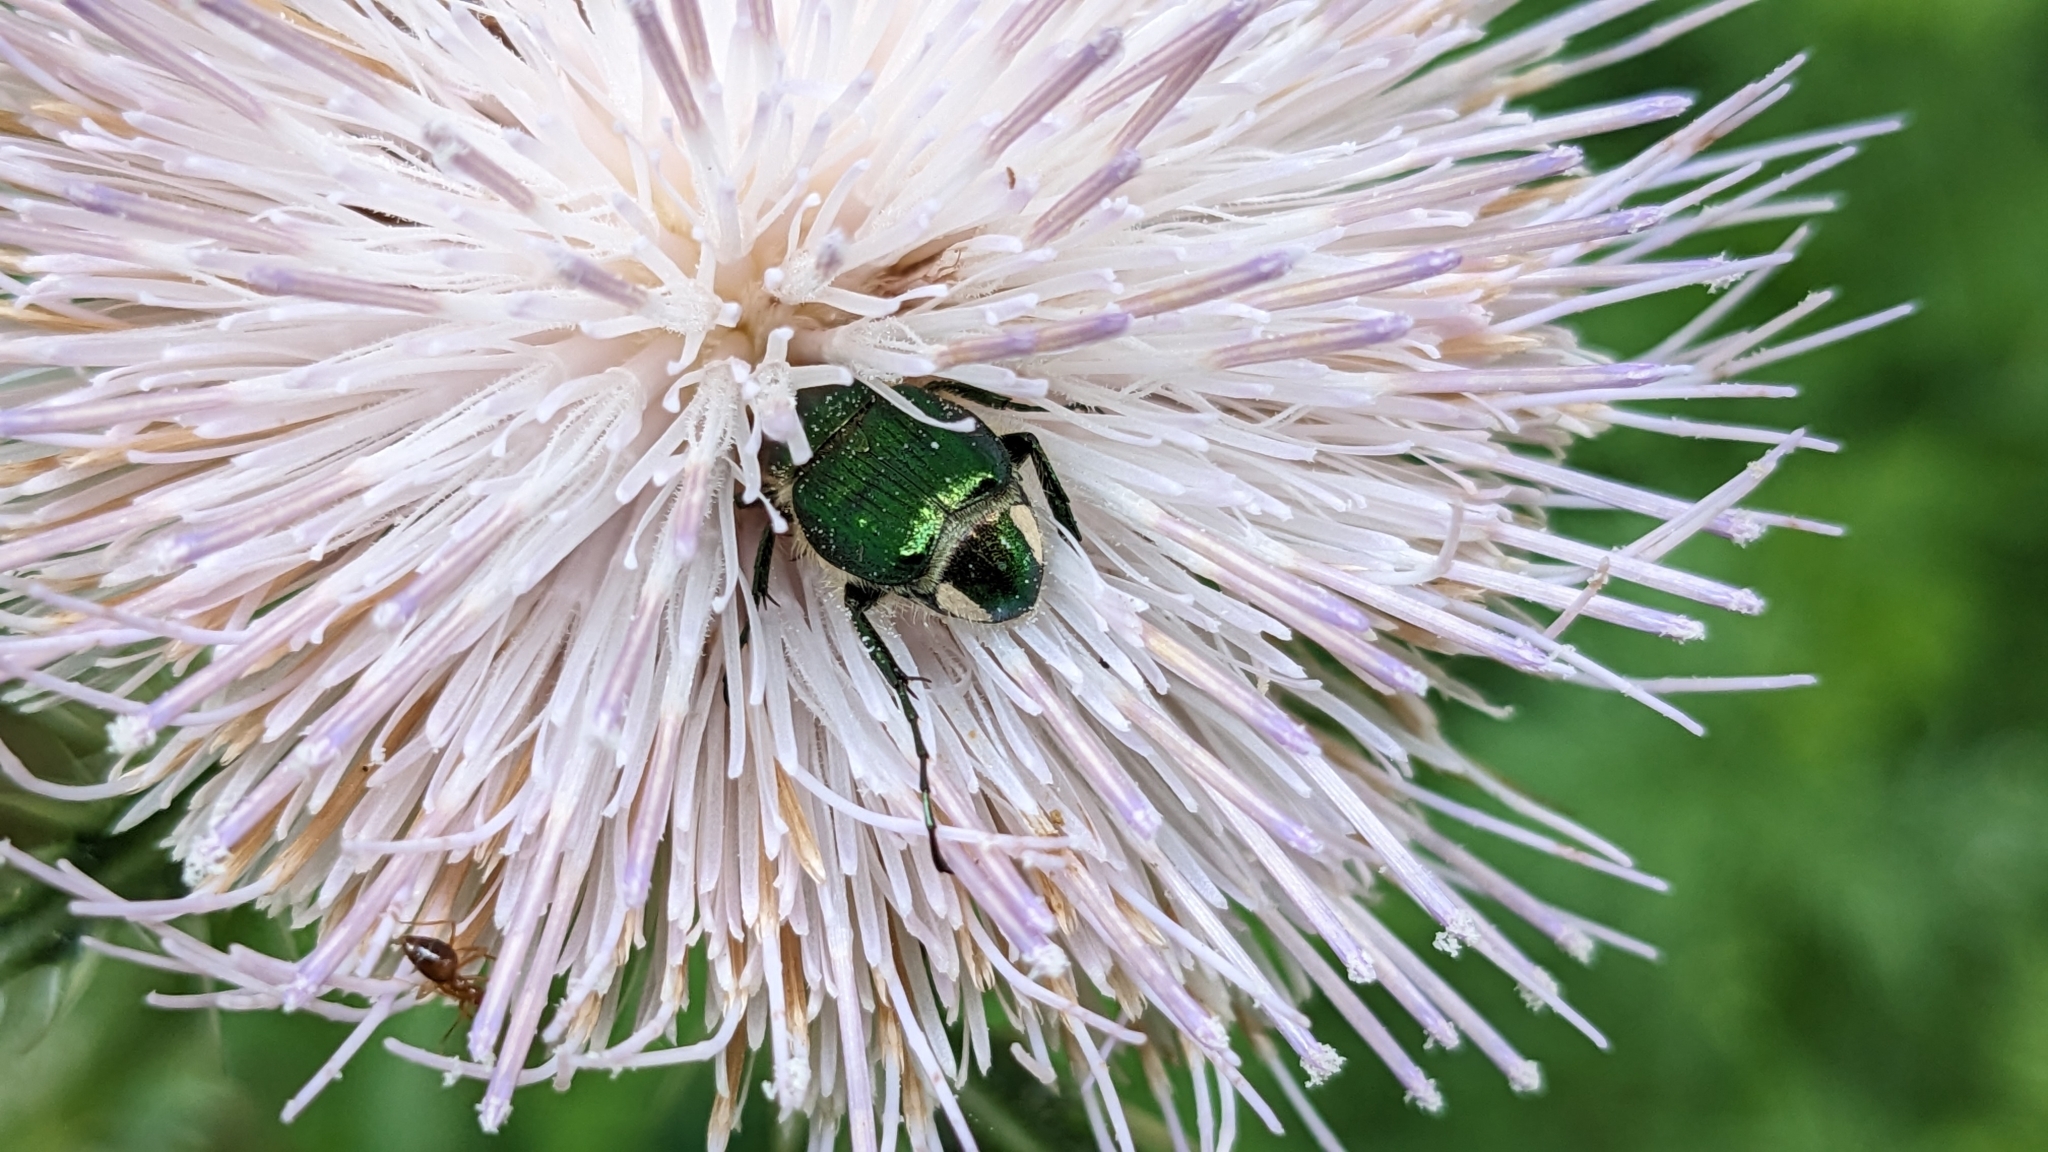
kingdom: Animalia
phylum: Arthropoda
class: Insecta
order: Coleoptera
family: Scarabaeidae
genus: Trichiotinus
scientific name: Trichiotinus lunulatus
